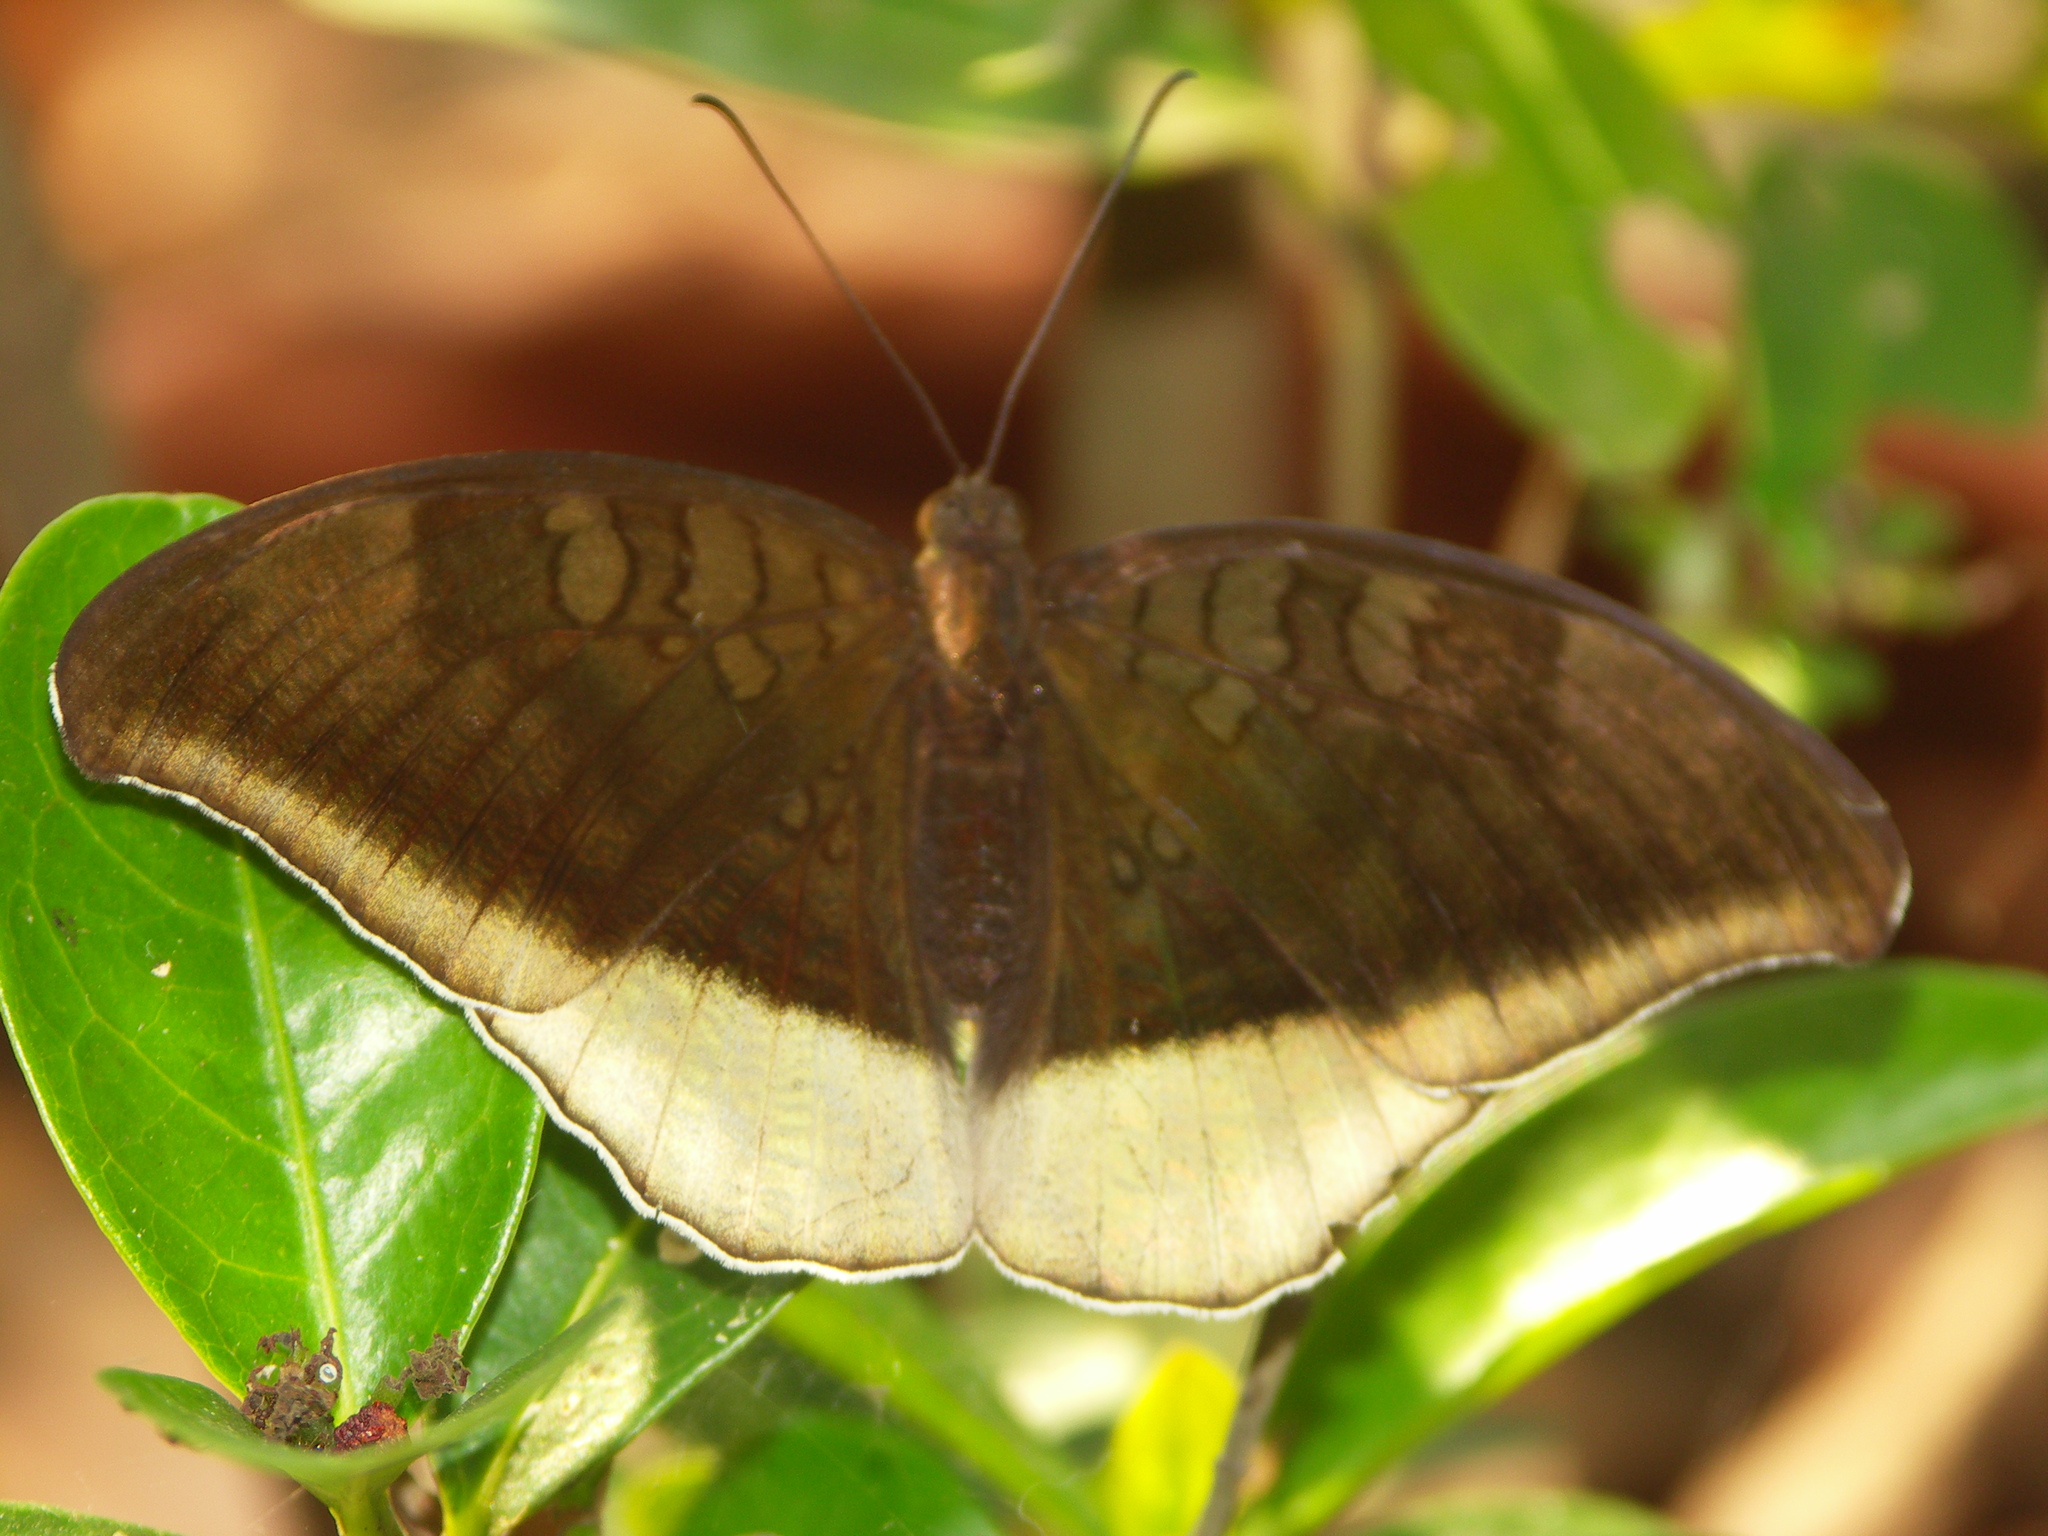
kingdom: Animalia
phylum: Arthropoda
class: Insecta
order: Lepidoptera
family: Nymphalidae
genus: Tanaecia
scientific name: Tanaecia lepidea
